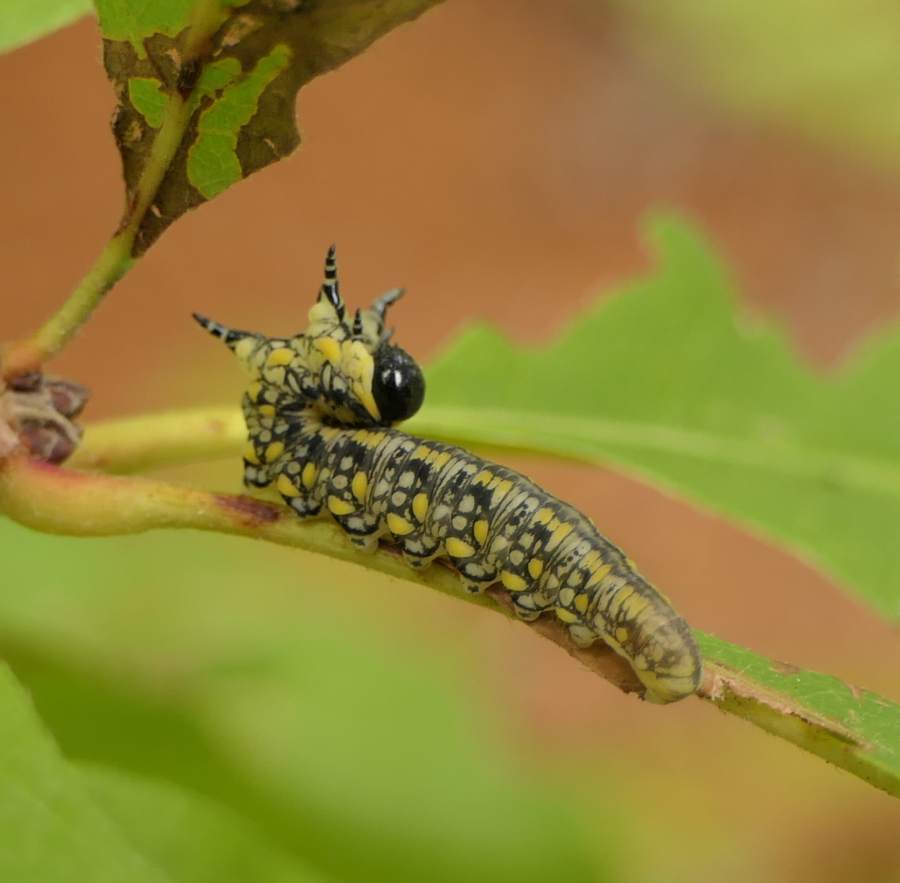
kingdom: Animalia
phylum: Arthropoda
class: Insecta
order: Hymenoptera
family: Diprionidae
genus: Diprion
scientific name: Diprion similis
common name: Pine sawfly
